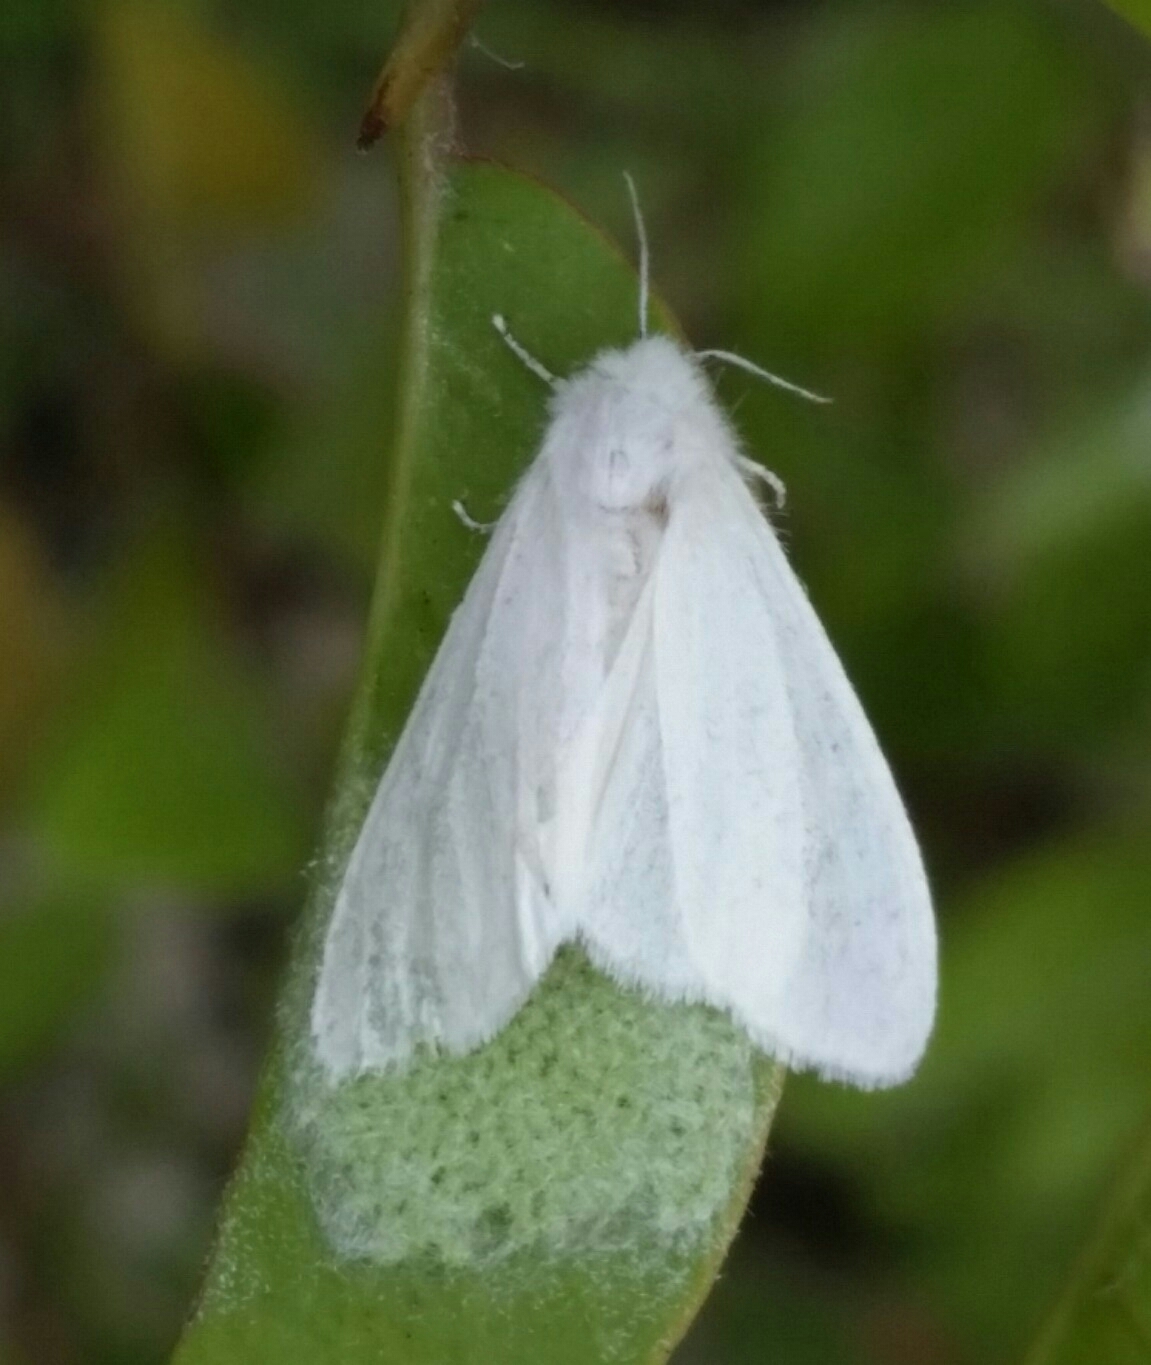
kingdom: Animalia
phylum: Arthropoda
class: Insecta
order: Lepidoptera
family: Erebidae
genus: Hyphantria
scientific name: Hyphantria cunea
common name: American white moth
